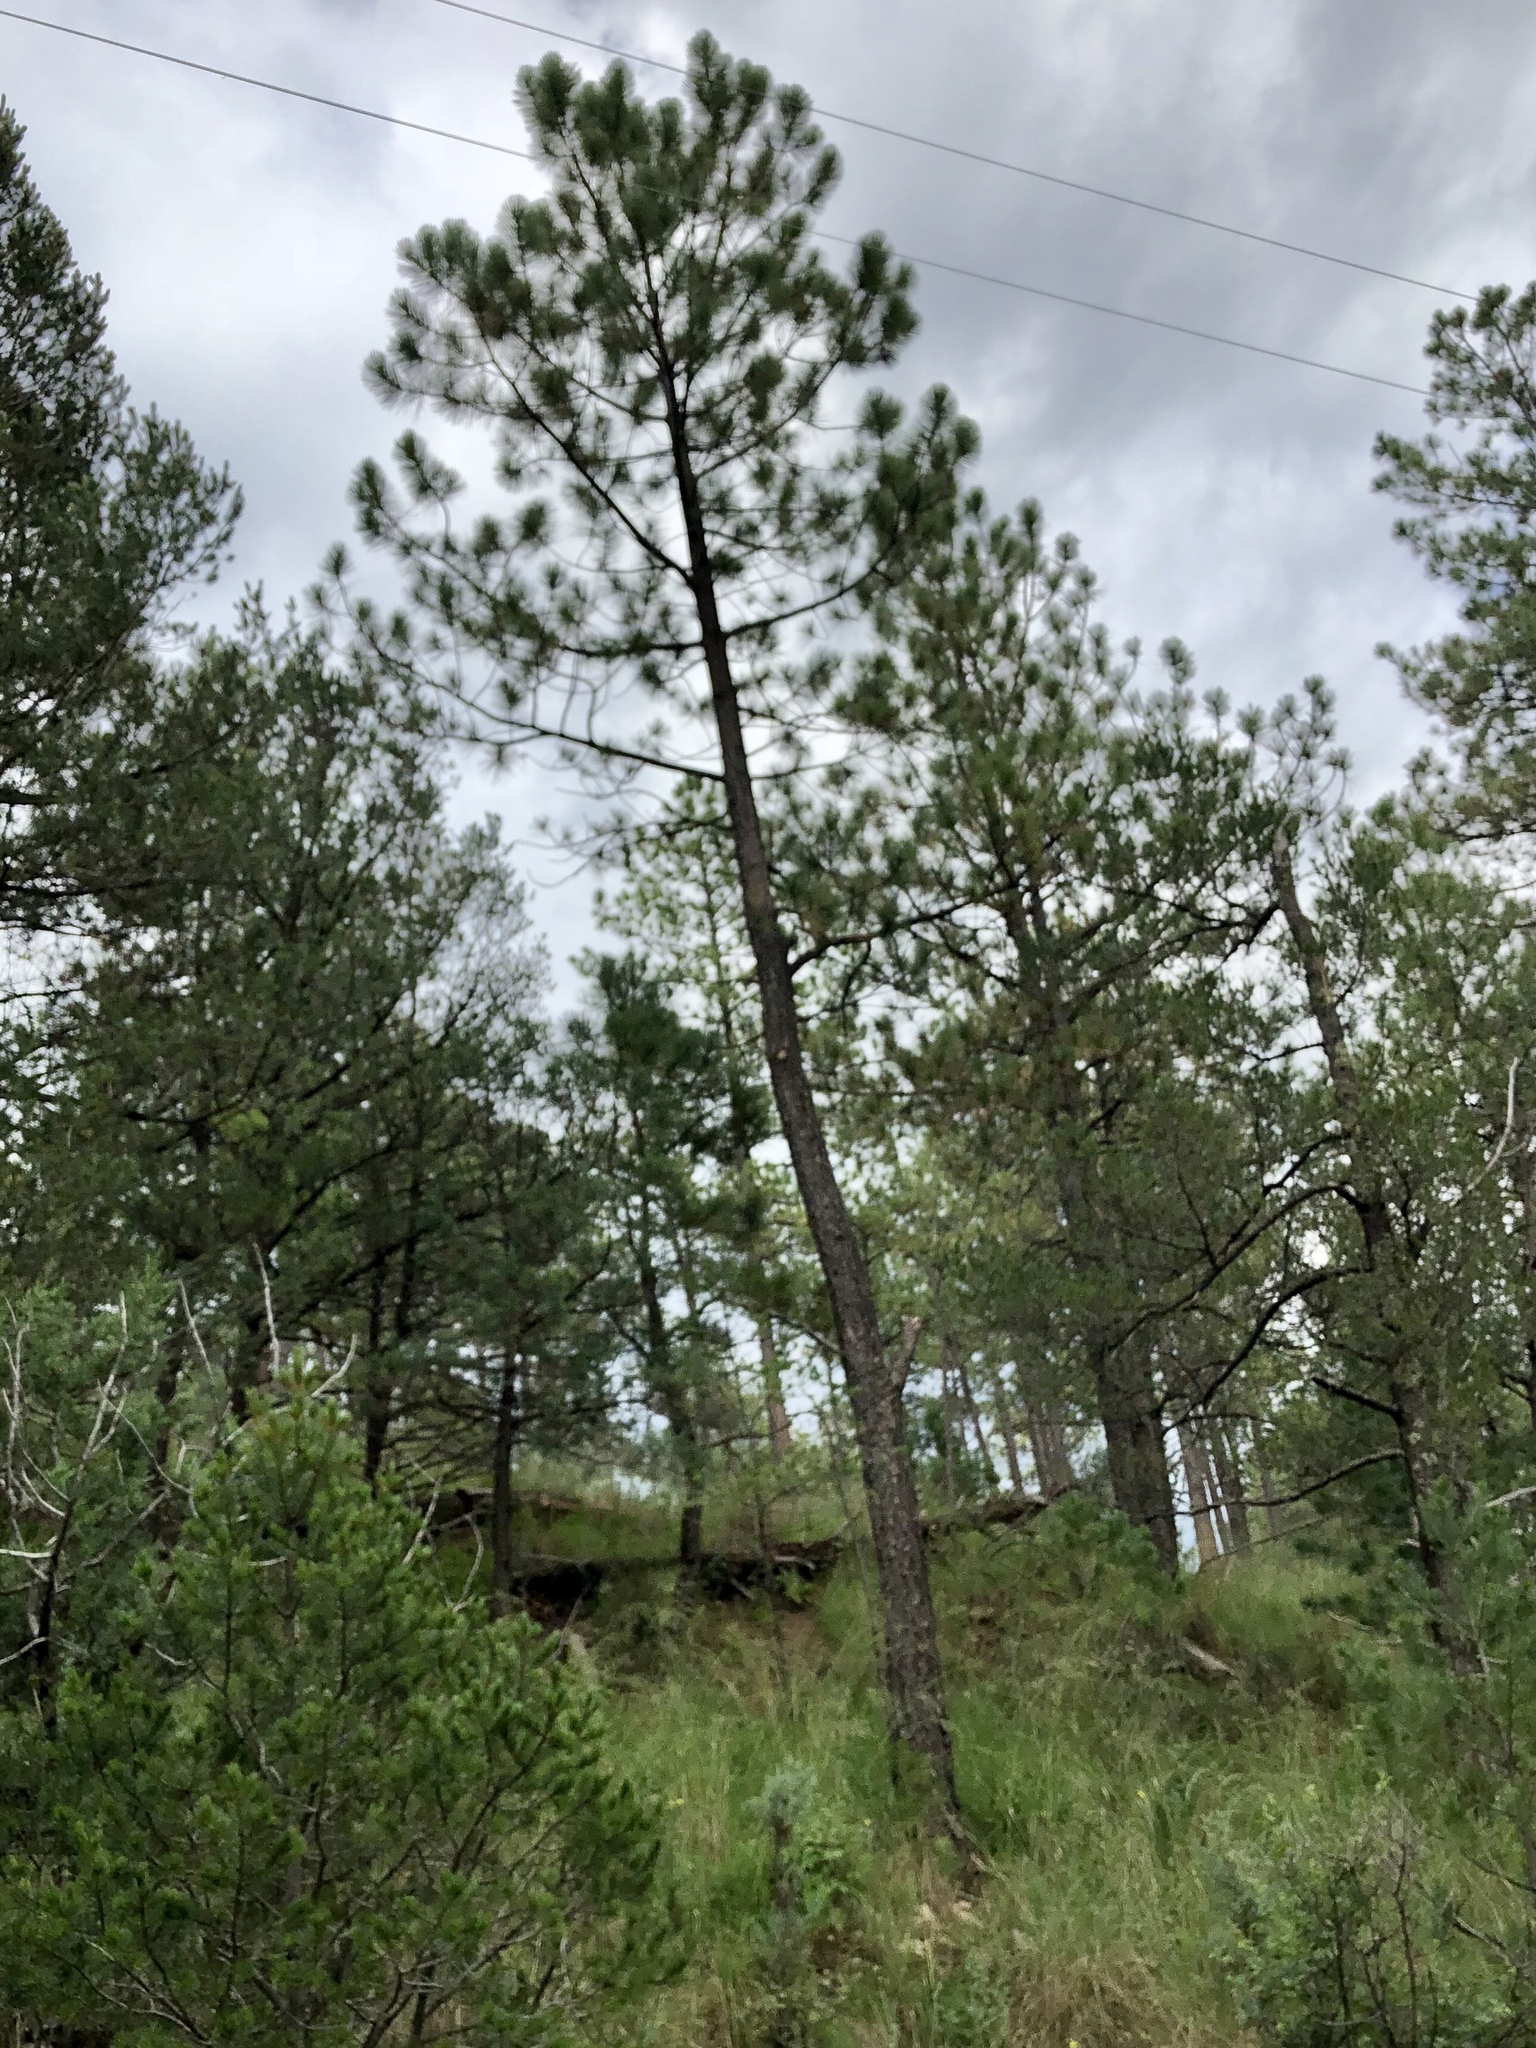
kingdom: Plantae
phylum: Tracheophyta
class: Pinopsida
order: Pinales
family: Pinaceae
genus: Pinus
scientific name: Pinus ponderosa
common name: Western yellow-pine
